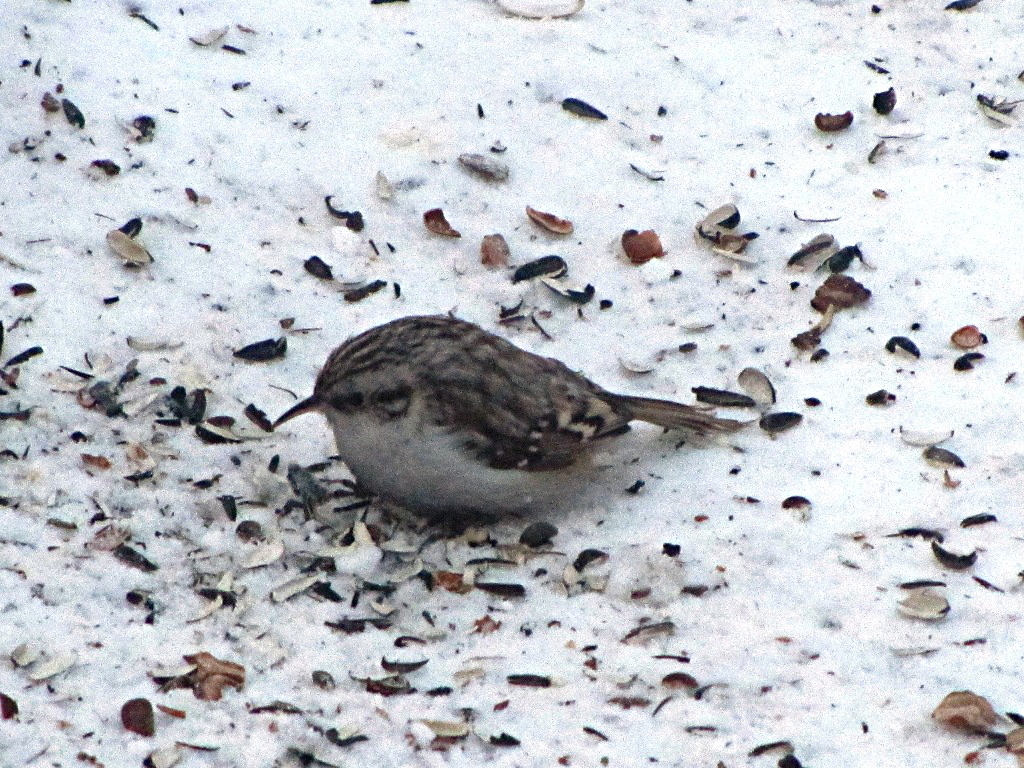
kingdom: Animalia
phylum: Chordata
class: Aves
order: Passeriformes
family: Certhiidae
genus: Certhia
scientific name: Certhia familiaris
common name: Eurasian treecreeper
